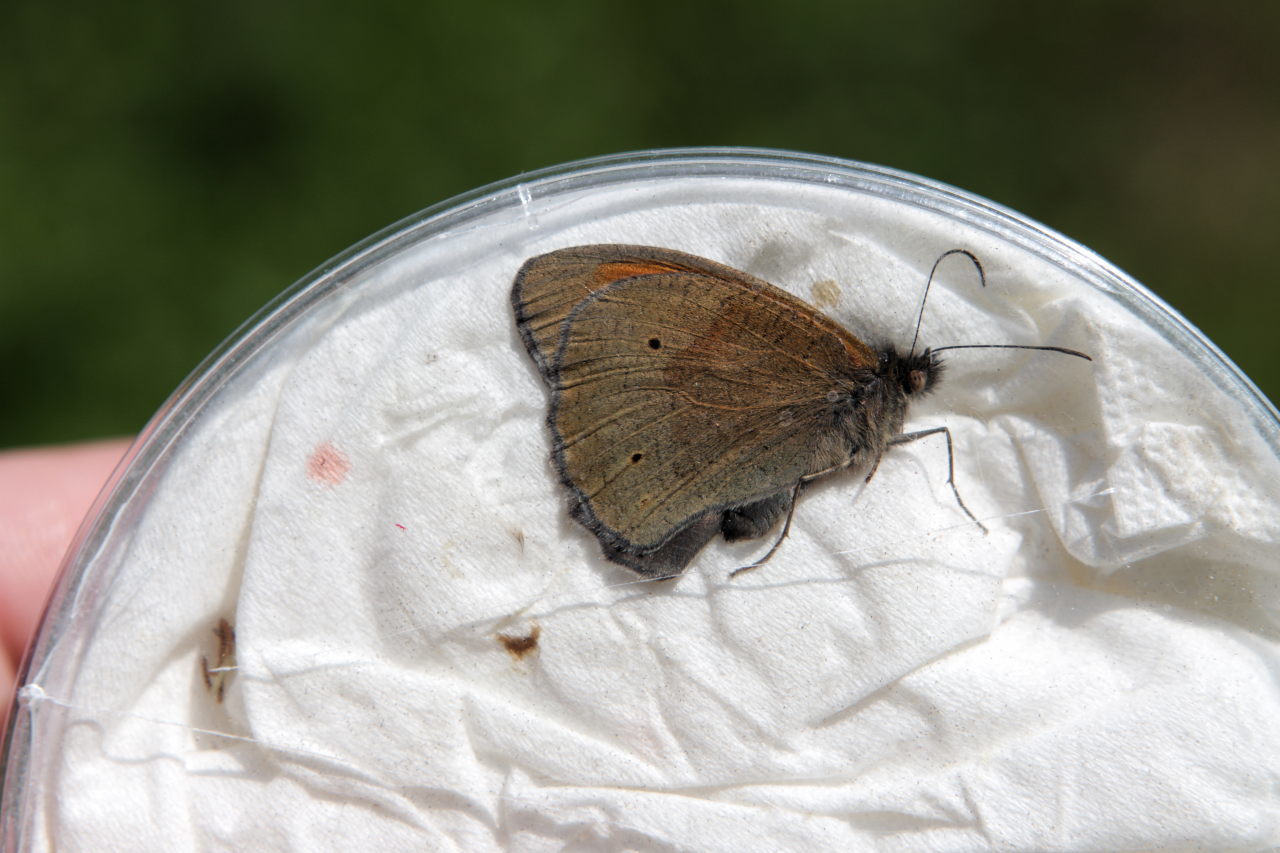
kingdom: Animalia
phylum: Arthropoda
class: Insecta
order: Lepidoptera
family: Nymphalidae
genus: Maniola
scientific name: Maniola jurtina
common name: Meadow brown
